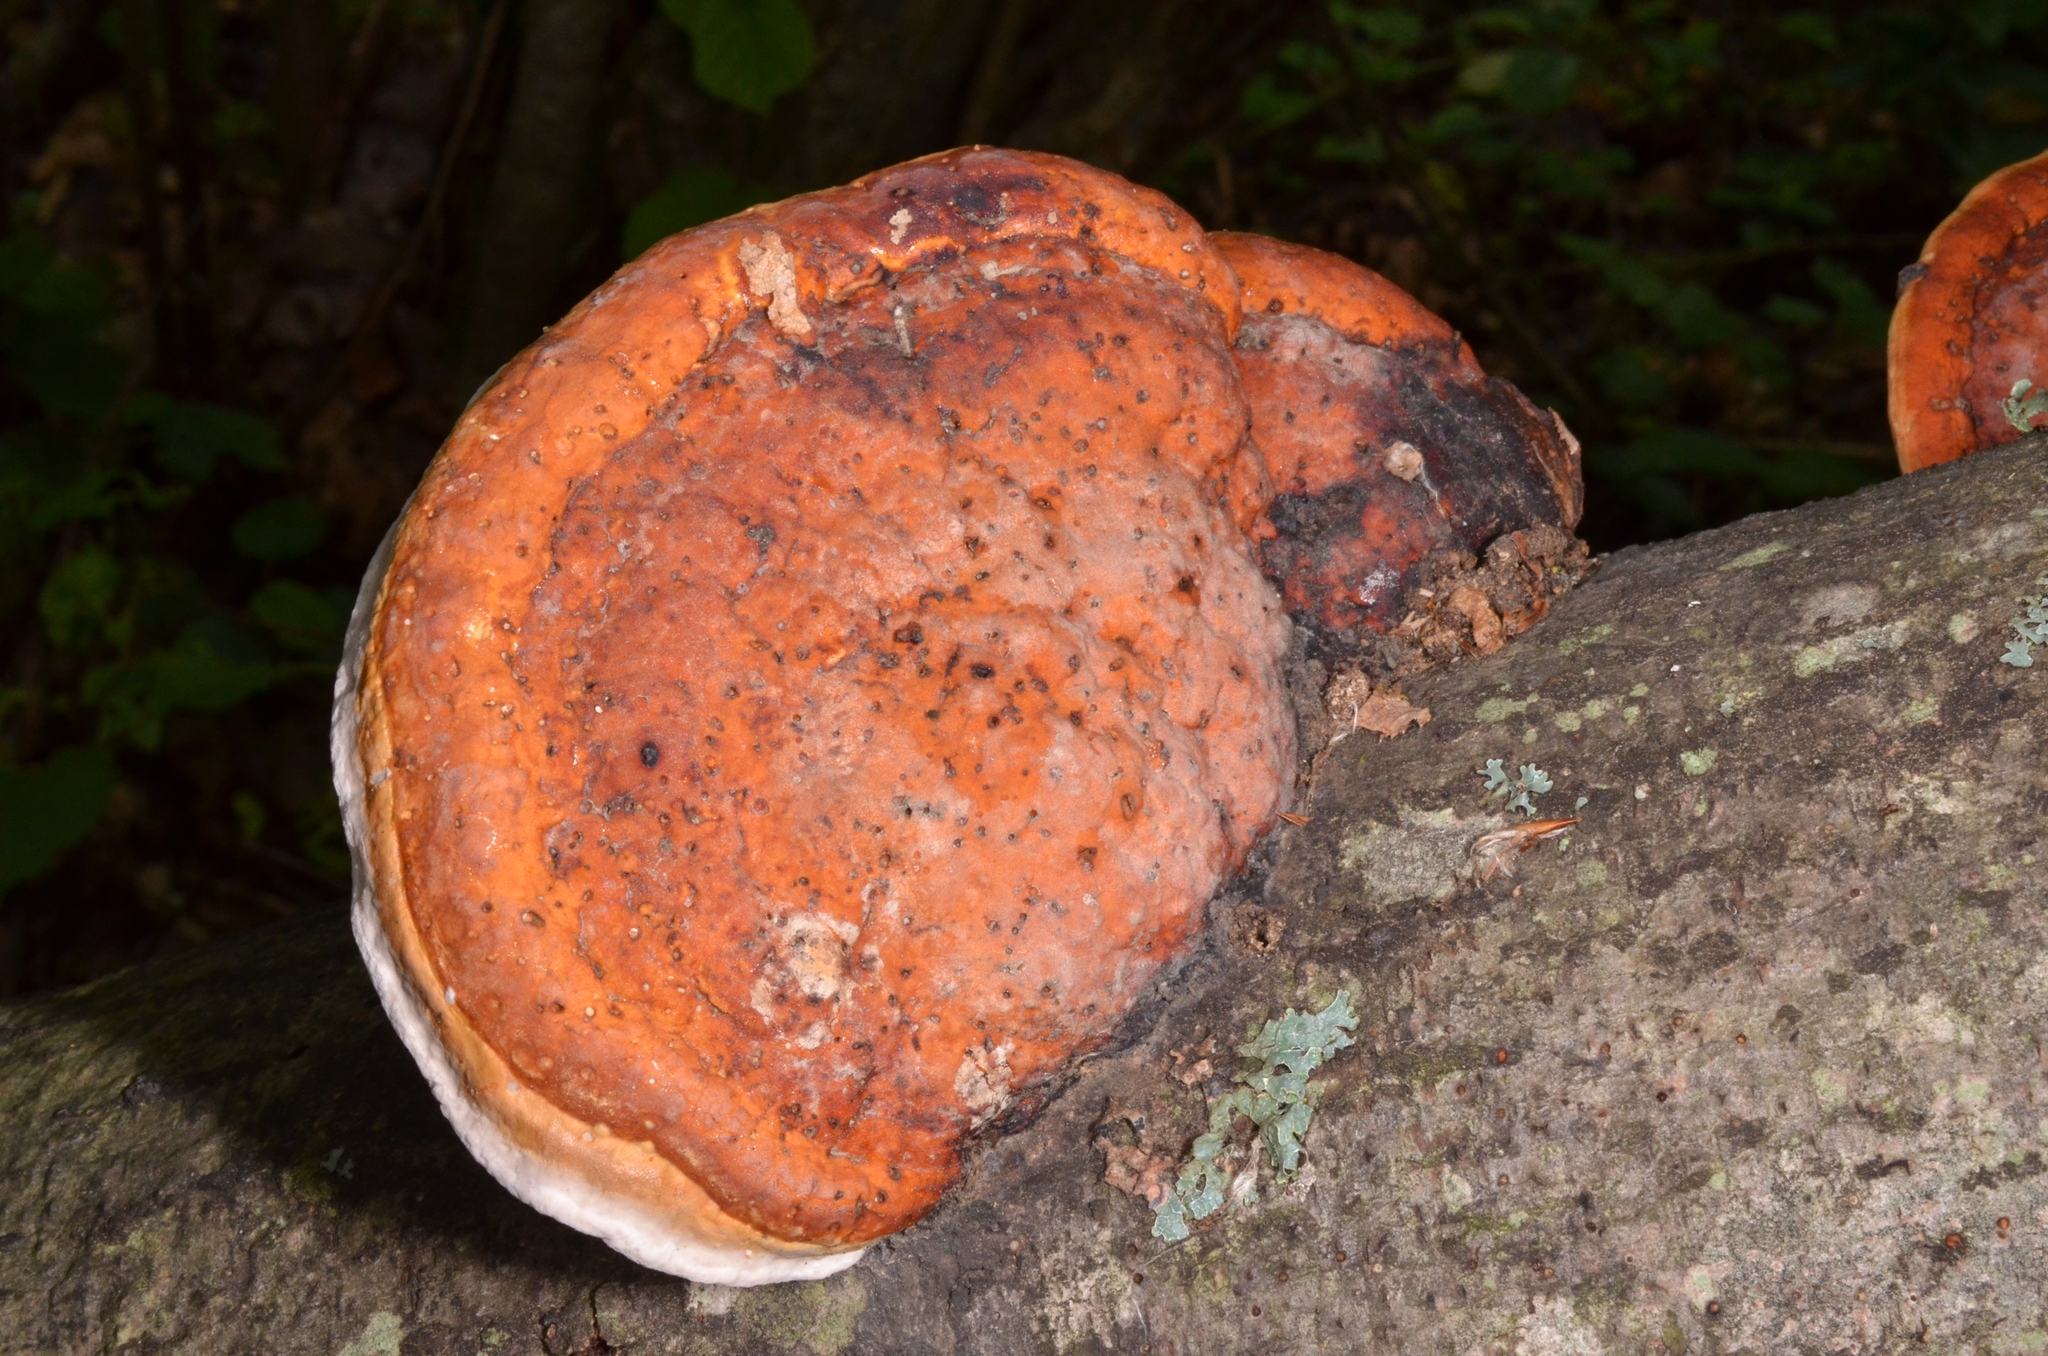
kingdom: Fungi
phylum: Basidiomycota
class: Agaricomycetes
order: Polyporales
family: Fomitopsidaceae
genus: Fomitopsis
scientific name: Fomitopsis pinicola
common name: Red-belted bracket
